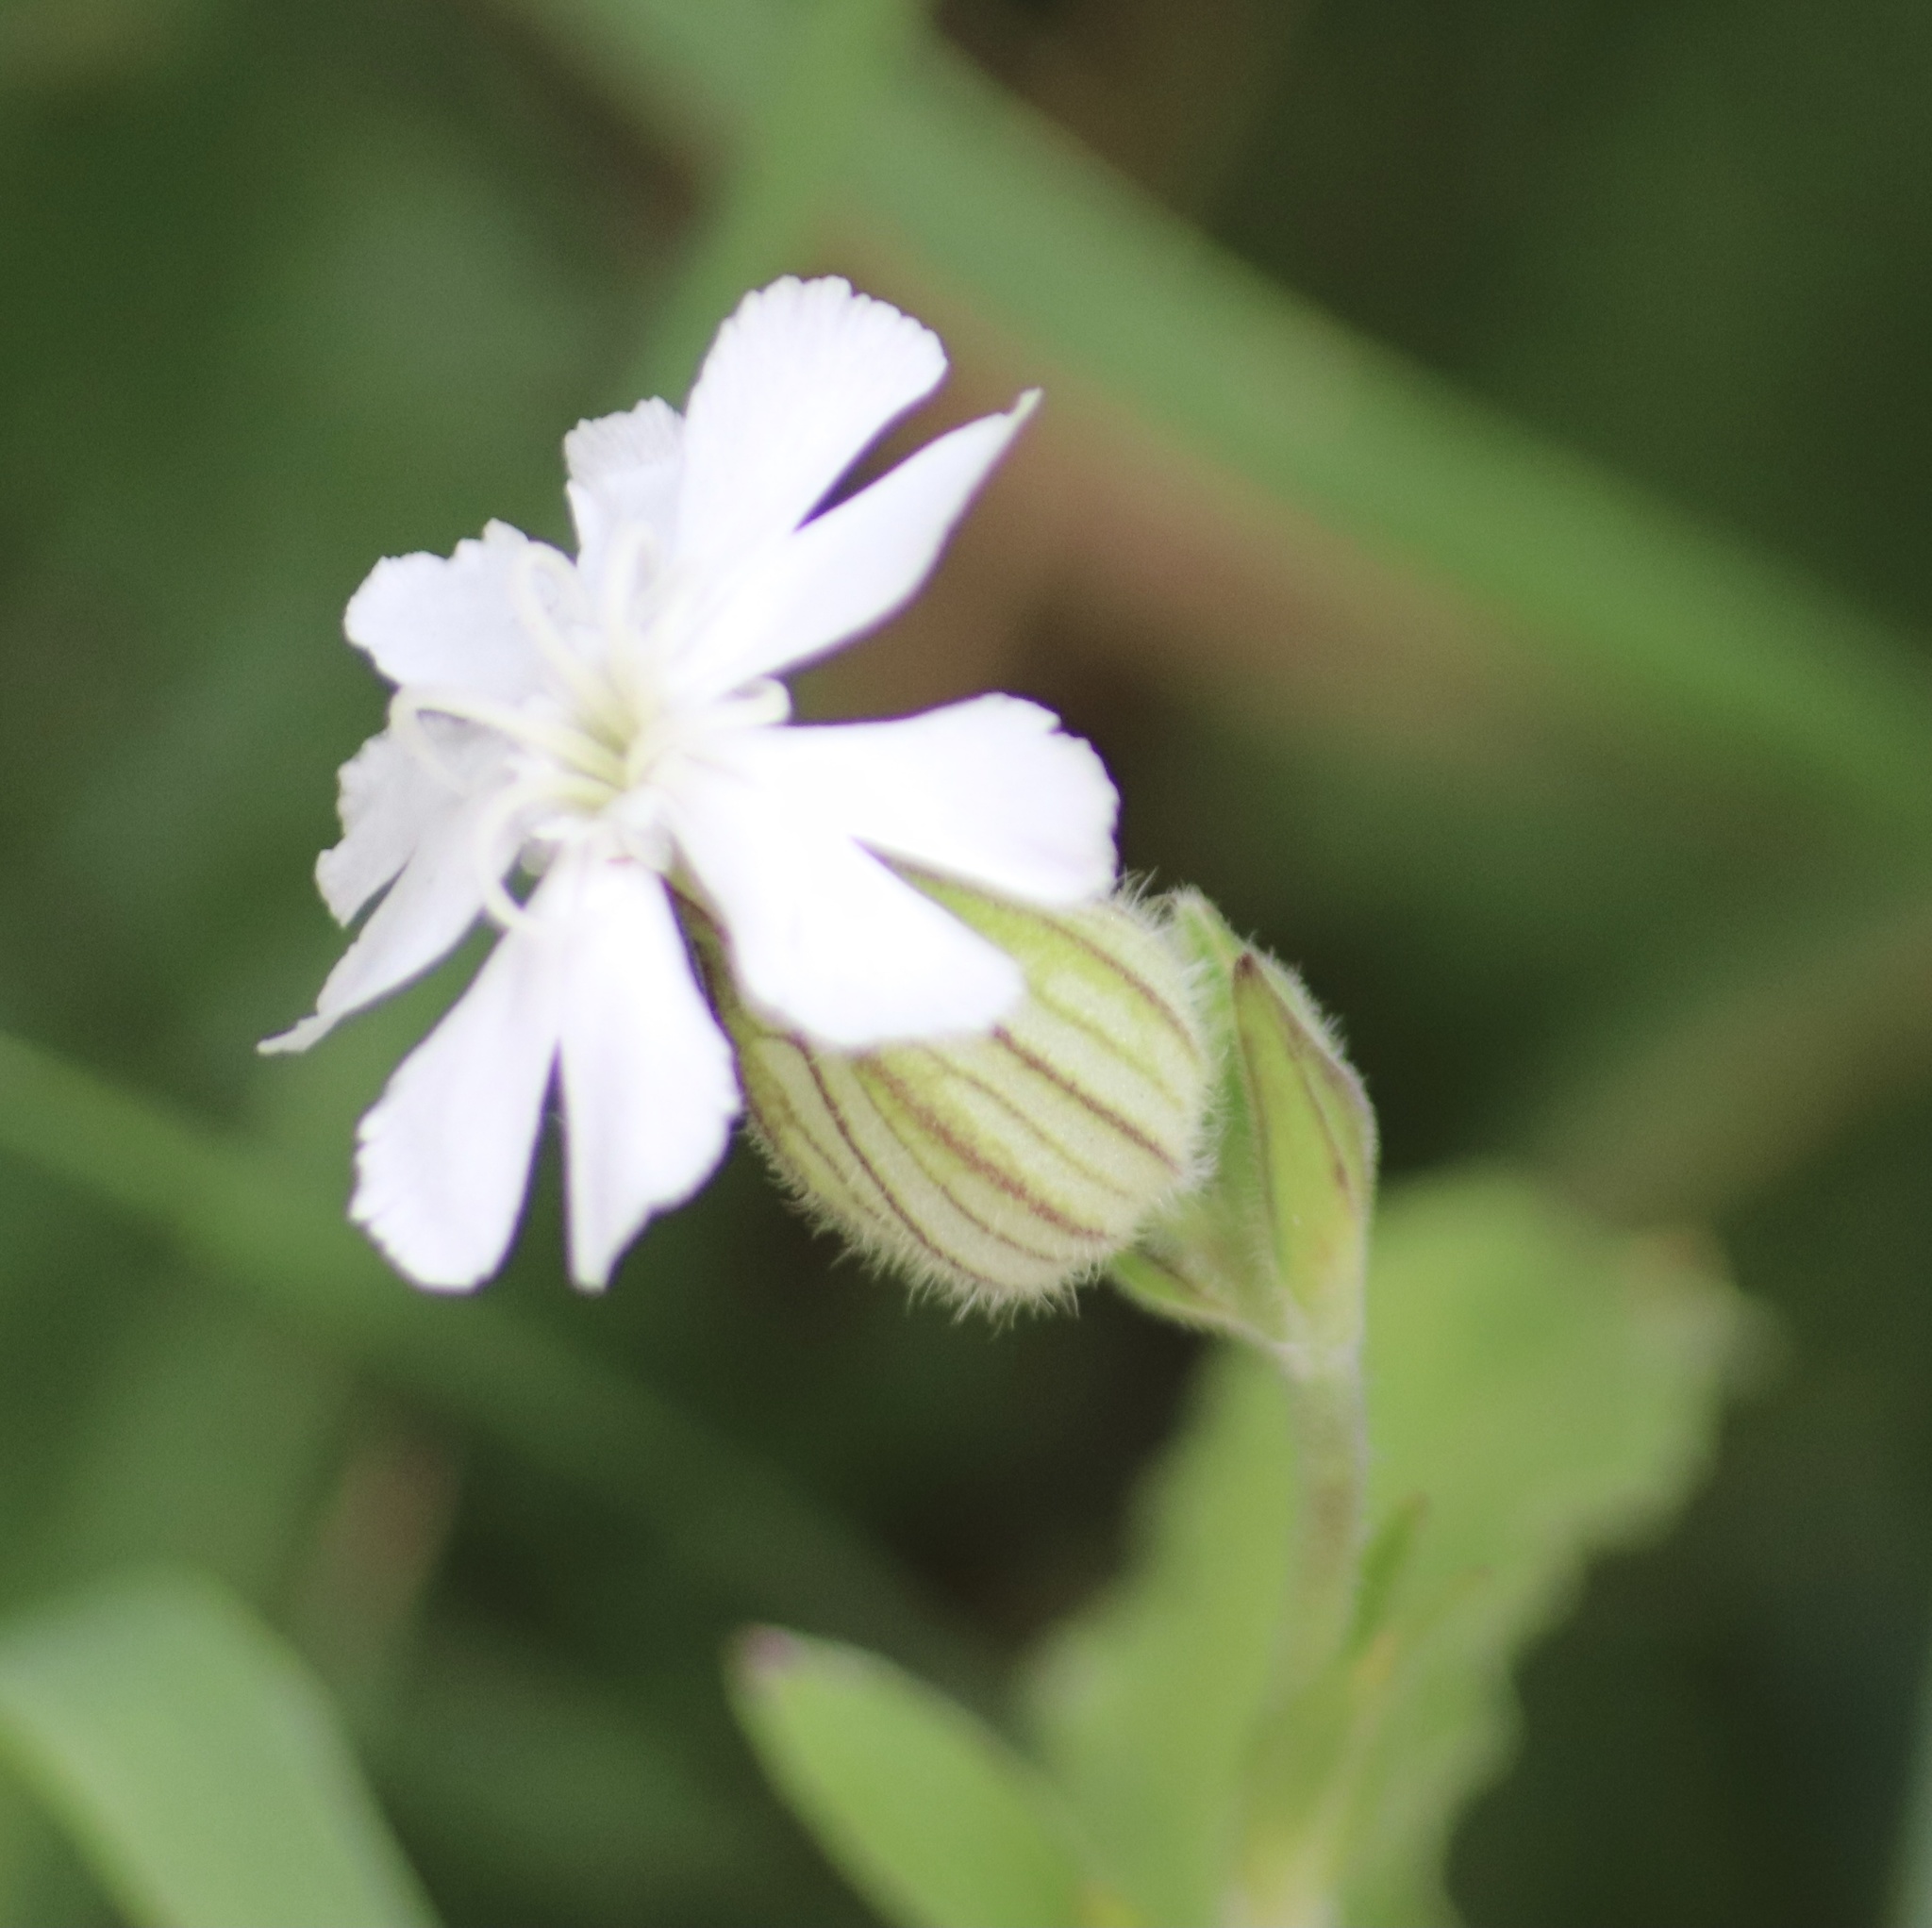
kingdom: Plantae
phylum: Tracheophyta
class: Magnoliopsida
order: Caryophyllales
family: Caryophyllaceae
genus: Silene
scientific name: Silene latifolia
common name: White campion
